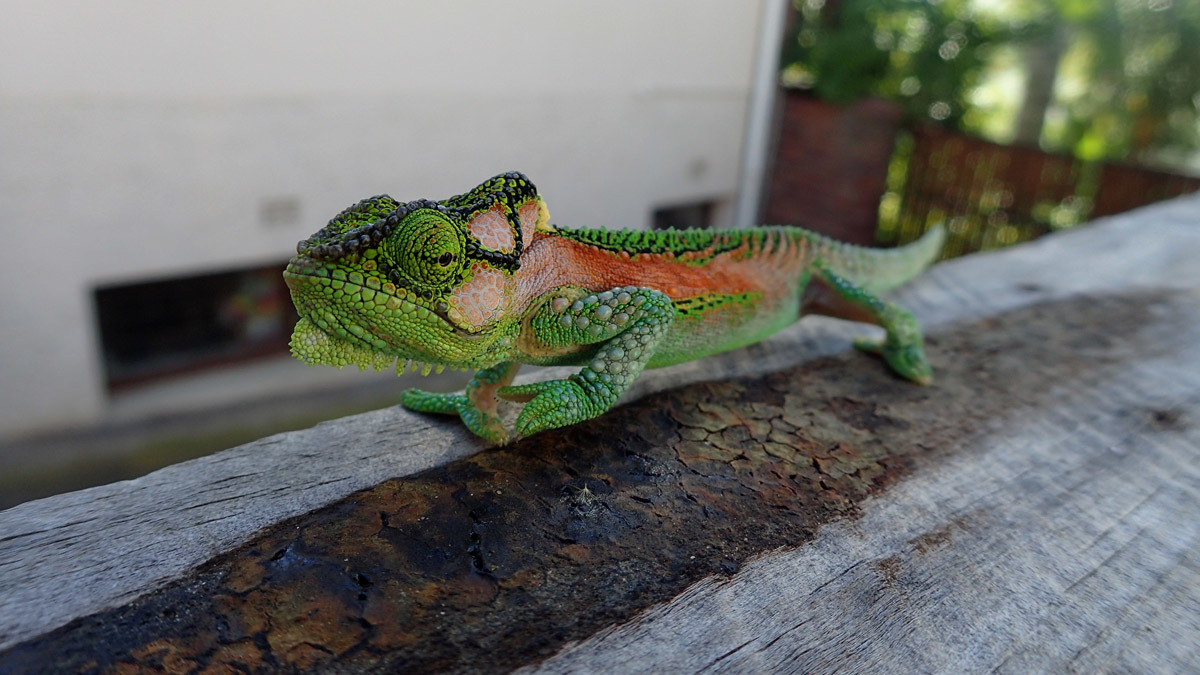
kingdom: Animalia
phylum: Chordata
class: Squamata
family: Chamaeleonidae
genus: Bradypodion
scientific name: Bradypodion damaranum
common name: Knysna dwarf chameleon
